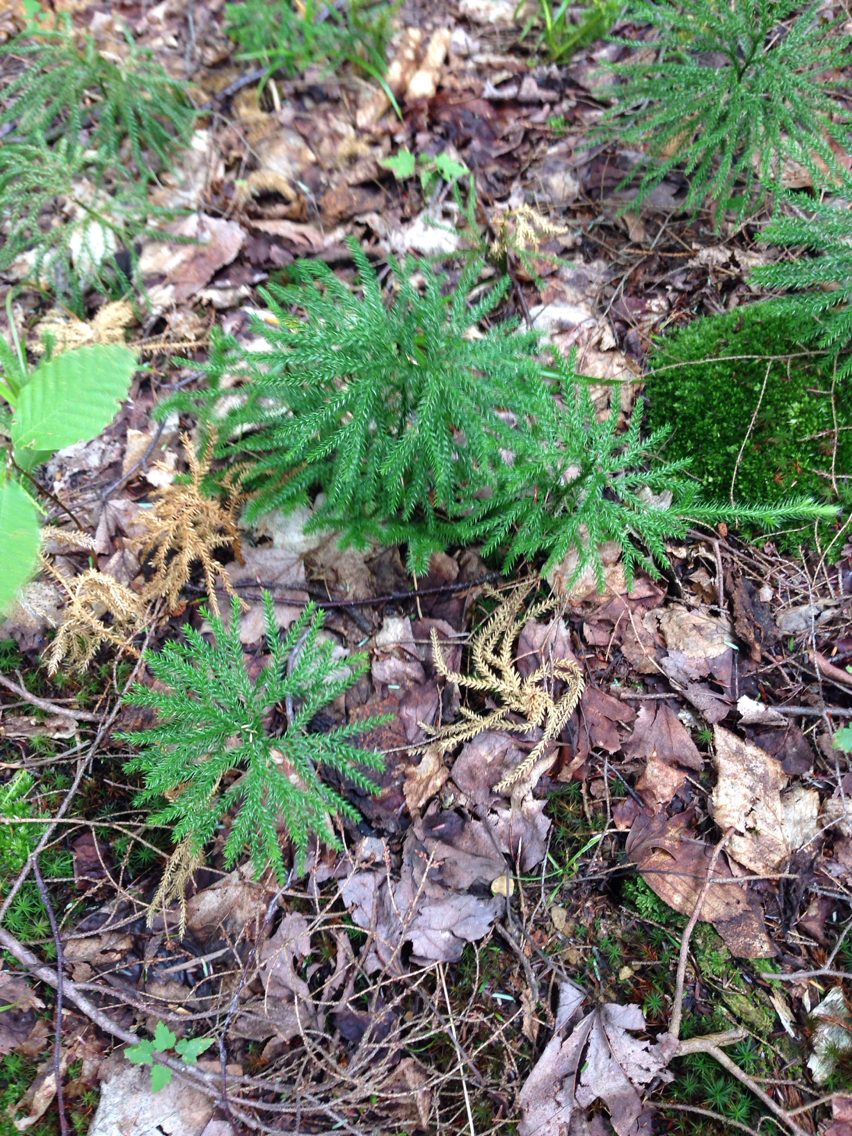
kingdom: Plantae
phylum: Tracheophyta
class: Lycopodiopsida
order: Lycopodiales
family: Lycopodiaceae
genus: Dendrolycopodium
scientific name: Dendrolycopodium dendroideum
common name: Northern tree-clubmoss
